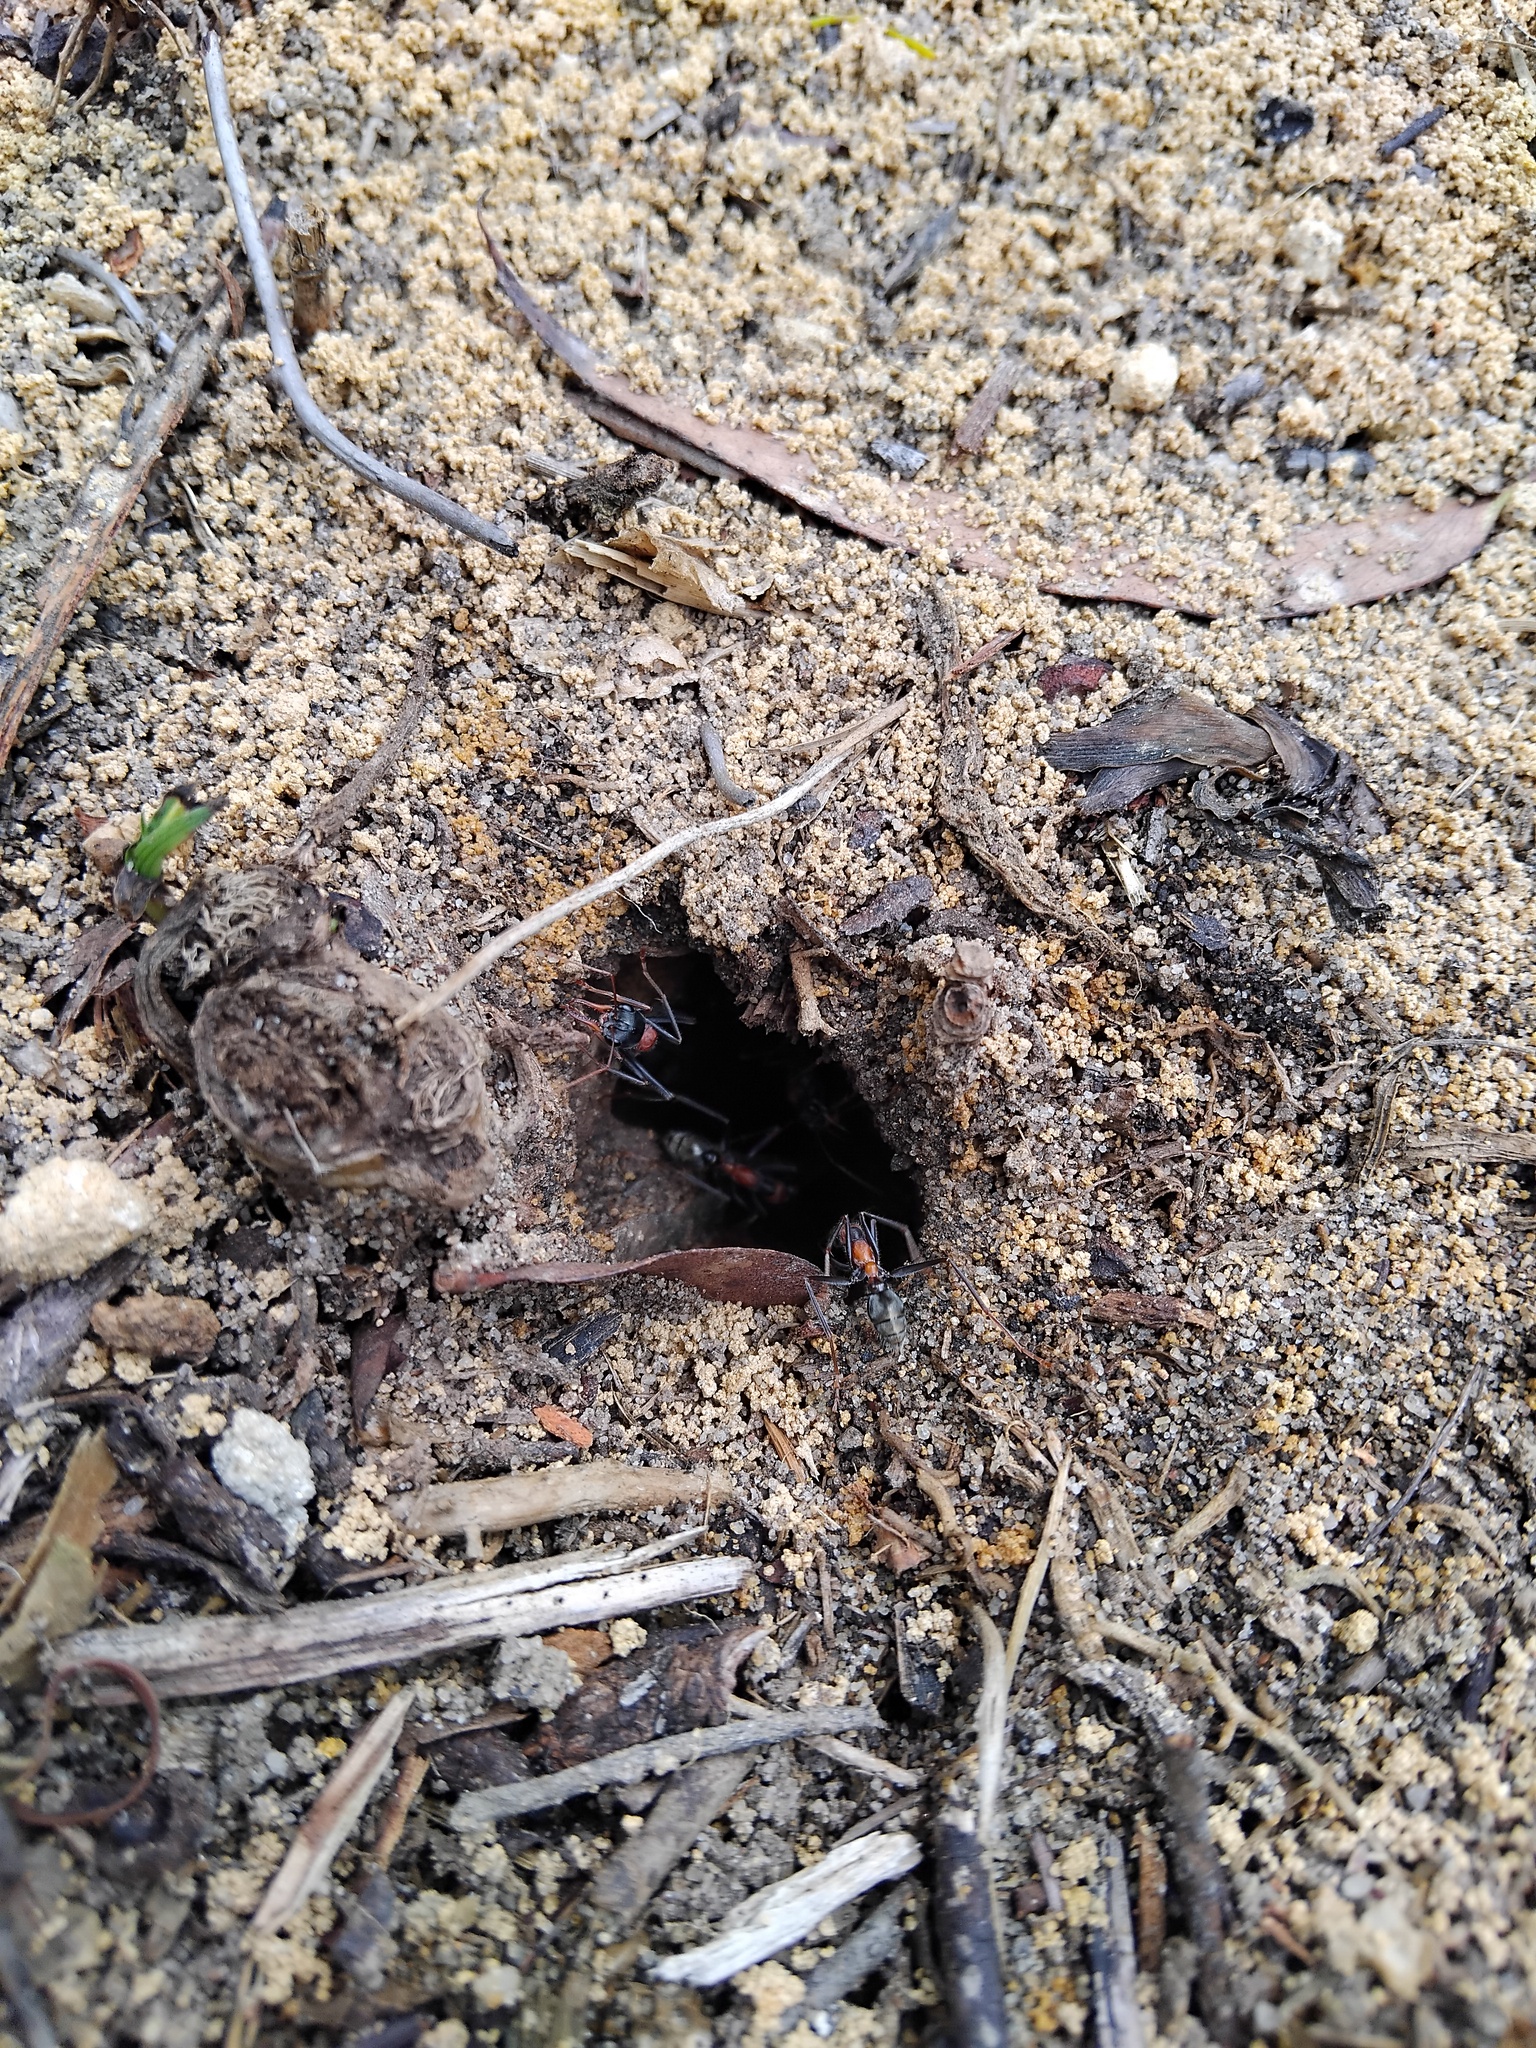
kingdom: Animalia
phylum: Arthropoda
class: Insecta
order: Hymenoptera
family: Formicidae
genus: Myrmecia
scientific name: Myrmecia nigrocincta
